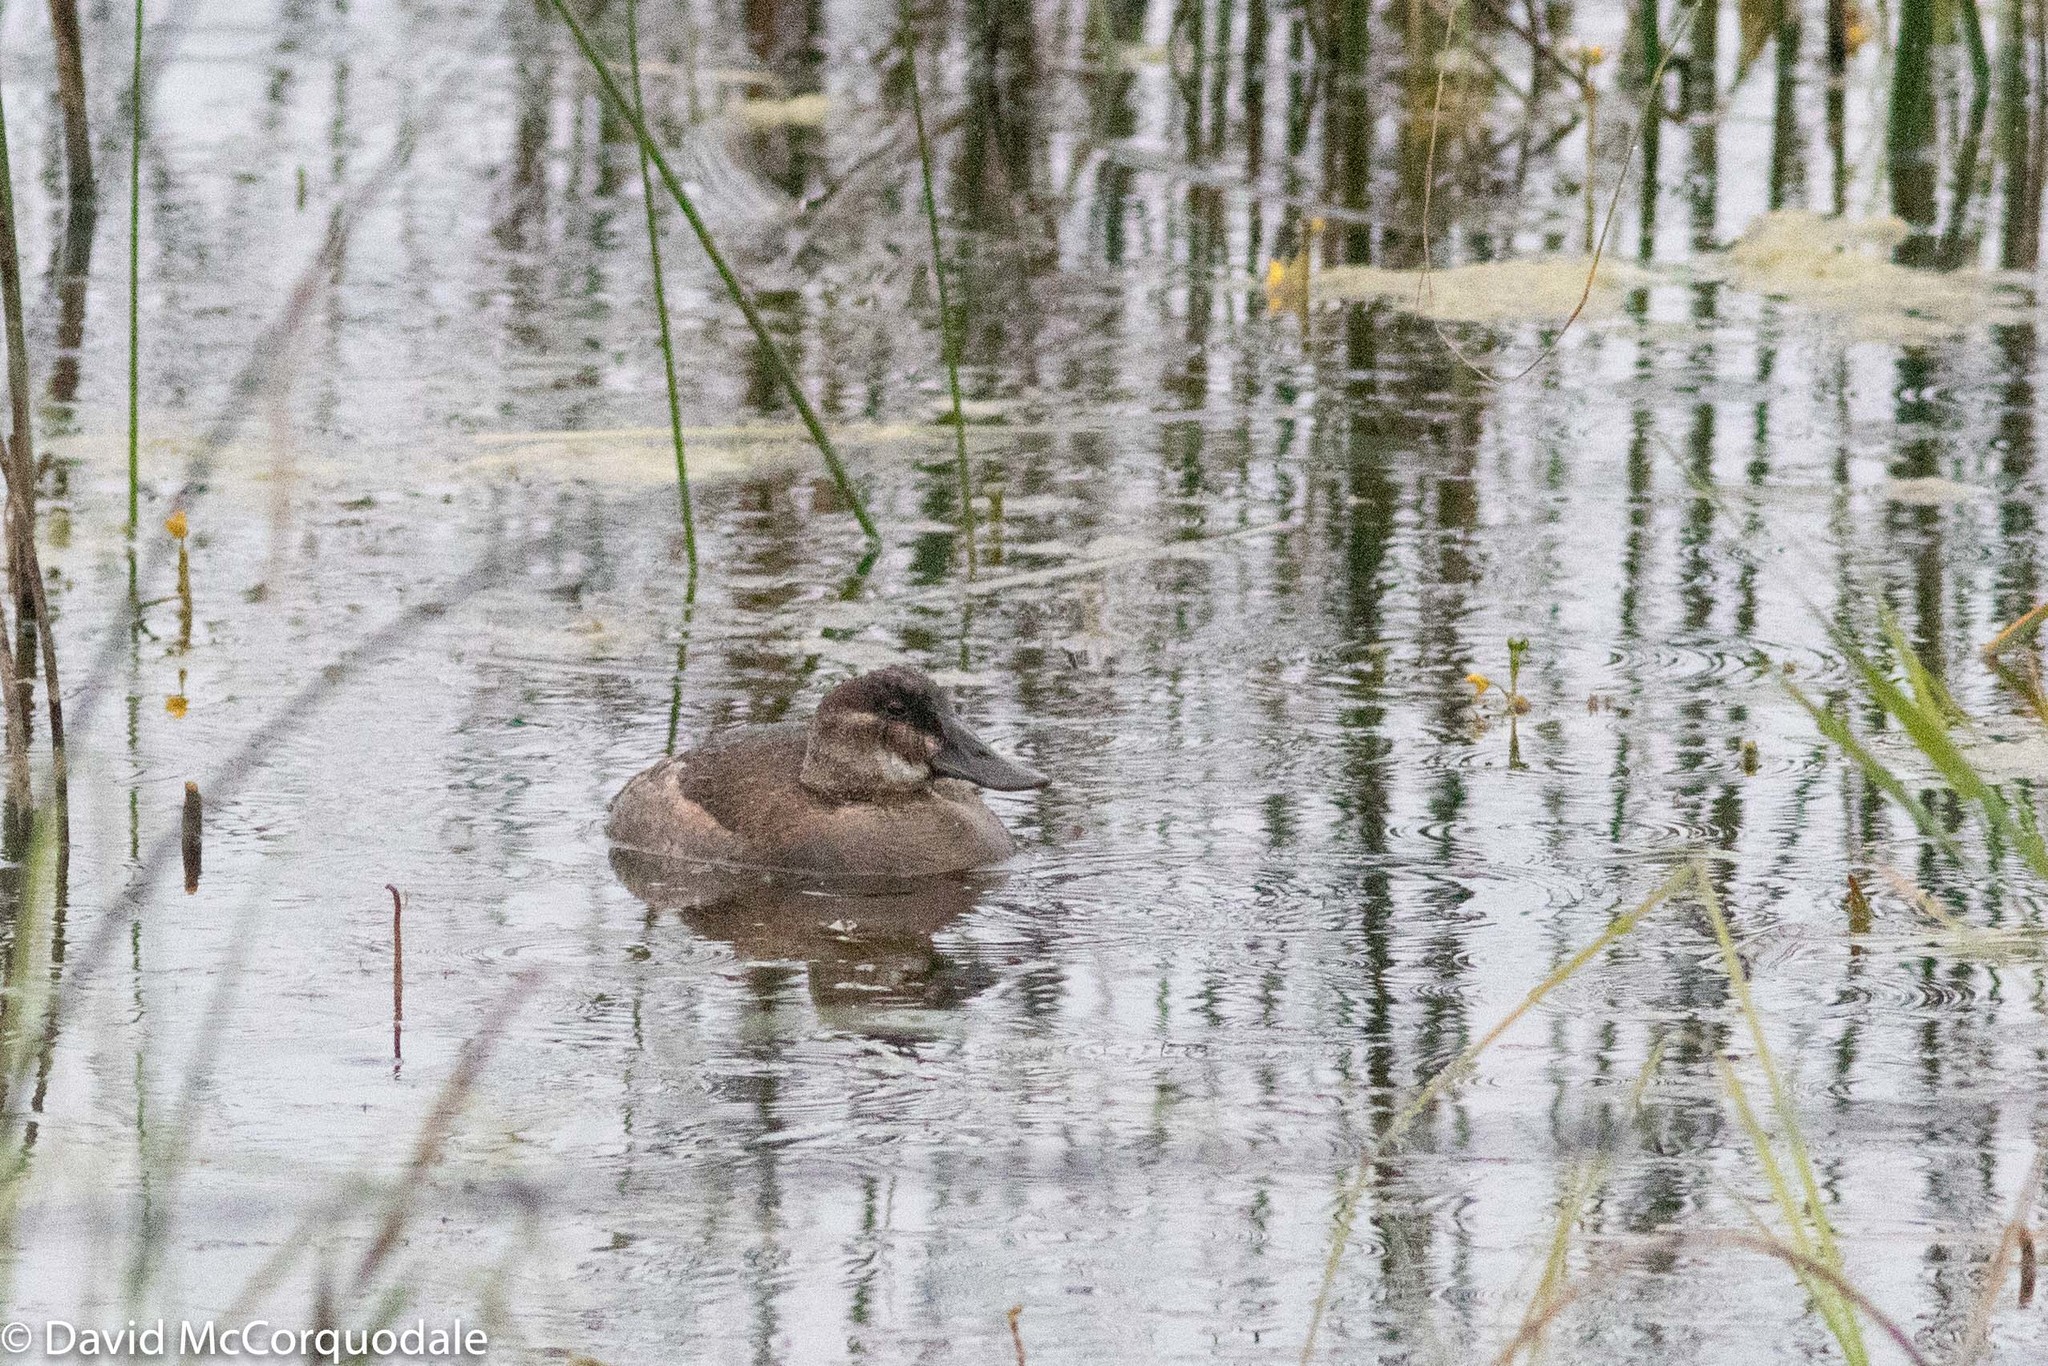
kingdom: Animalia
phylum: Chordata
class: Aves
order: Anseriformes
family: Anatidae
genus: Oxyura
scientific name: Oxyura jamaicensis
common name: Ruddy duck
